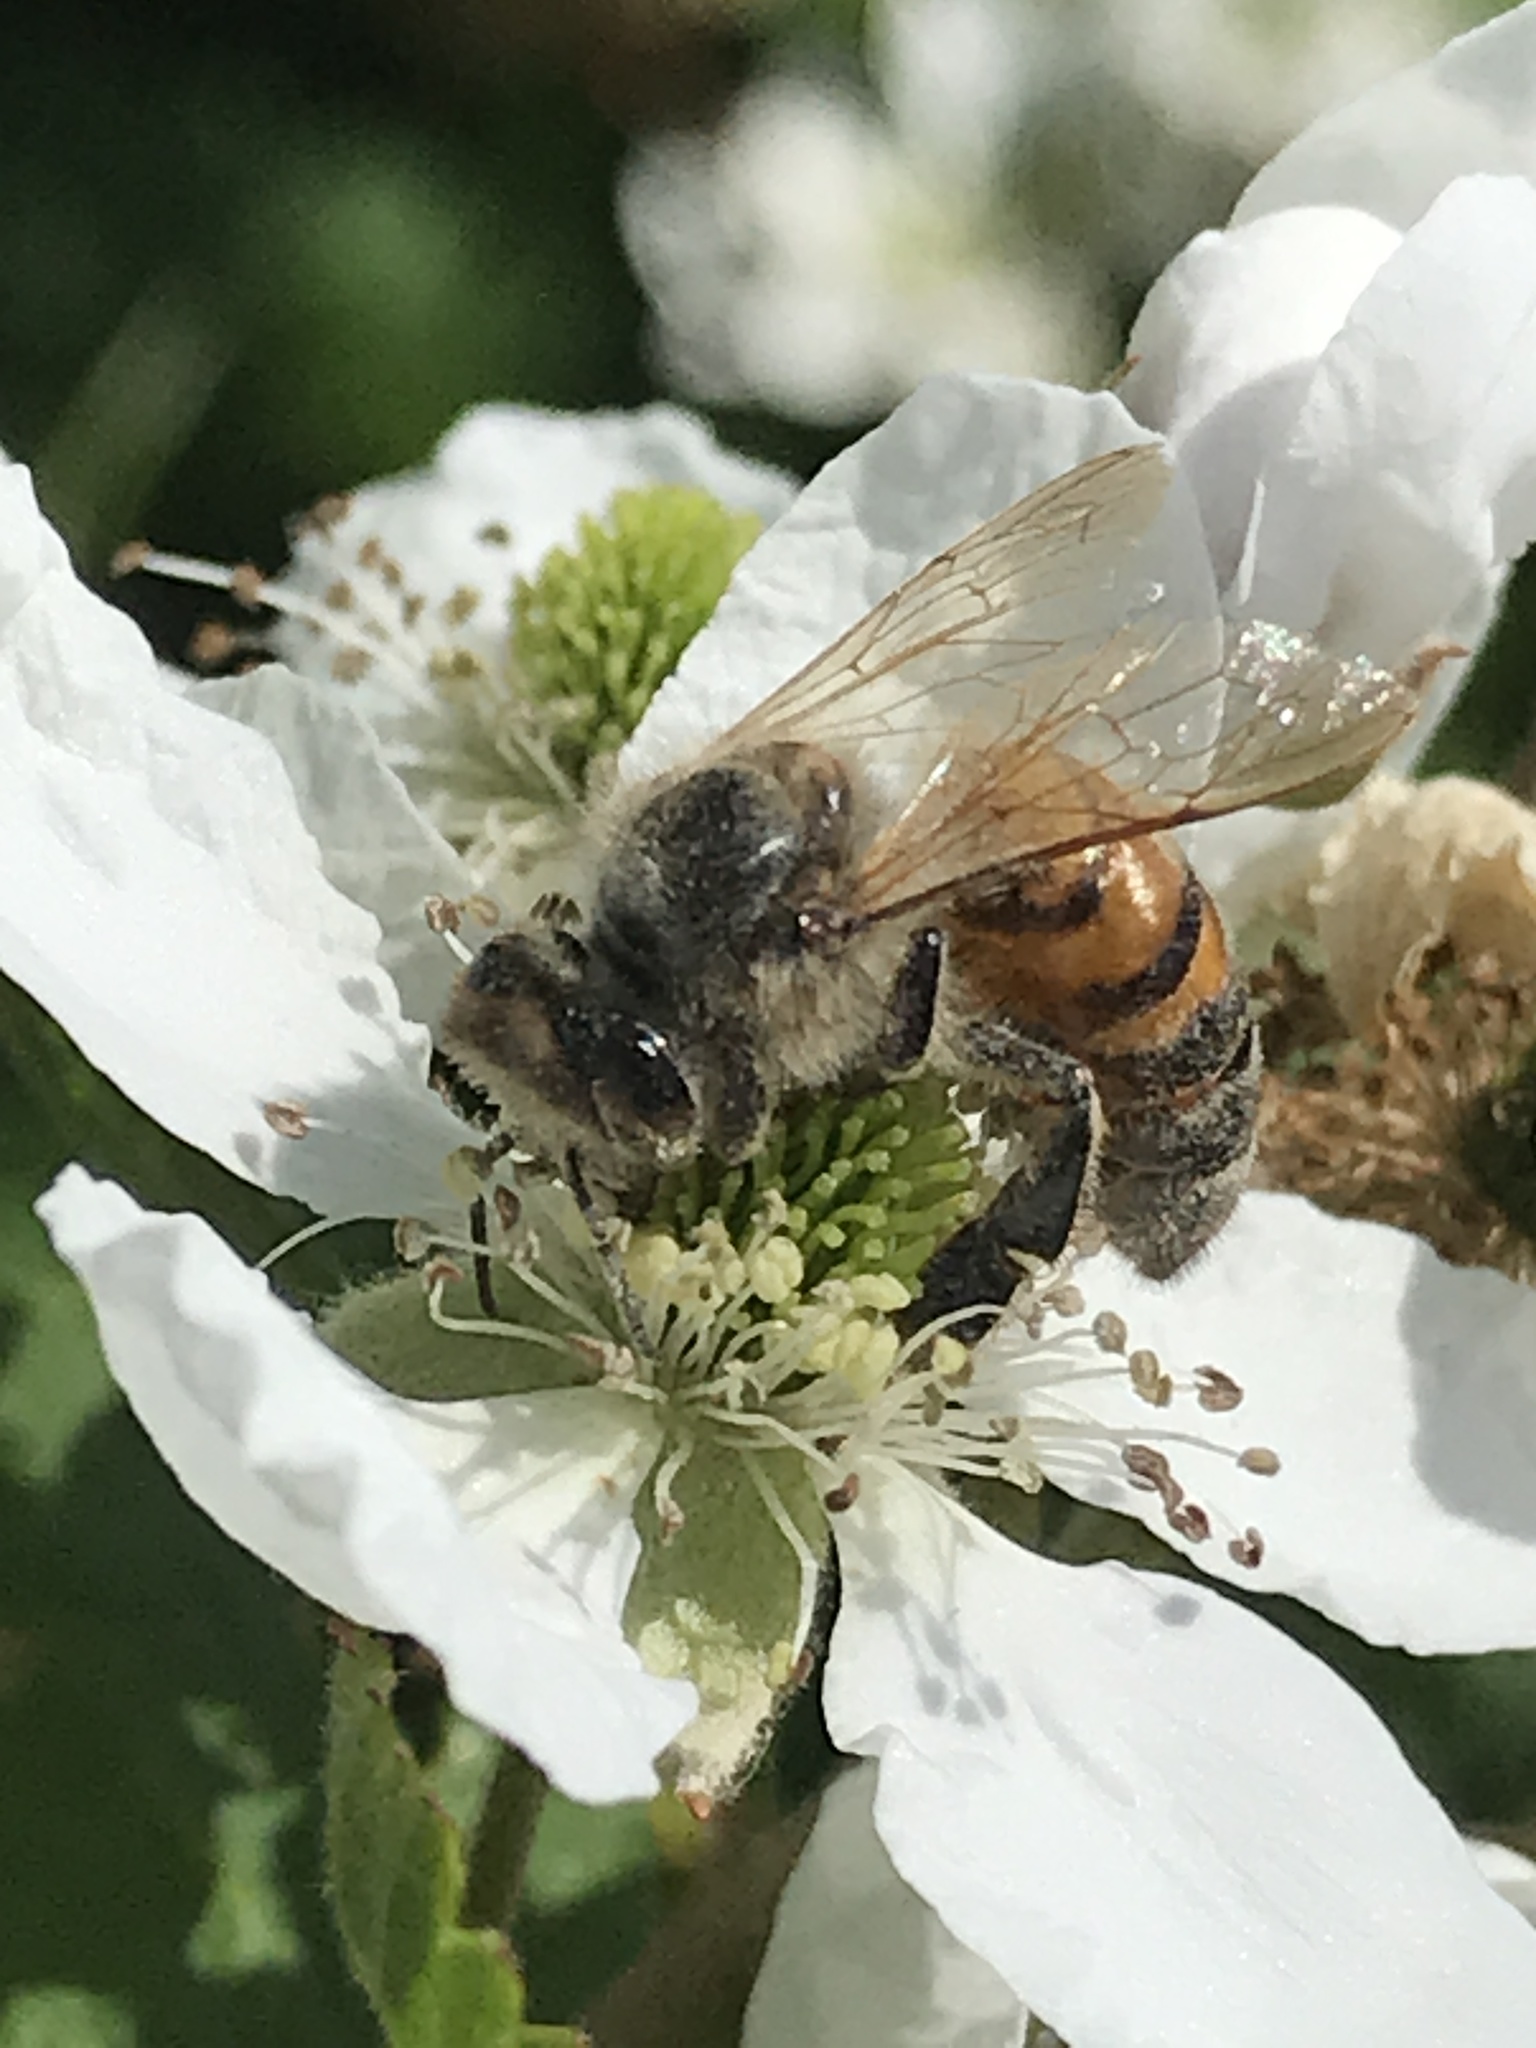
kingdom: Animalia
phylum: Arthropoda
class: Insecta
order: Hymenoptera
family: Apidae
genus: Apis
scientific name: Apis mellifera
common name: Honey bee
